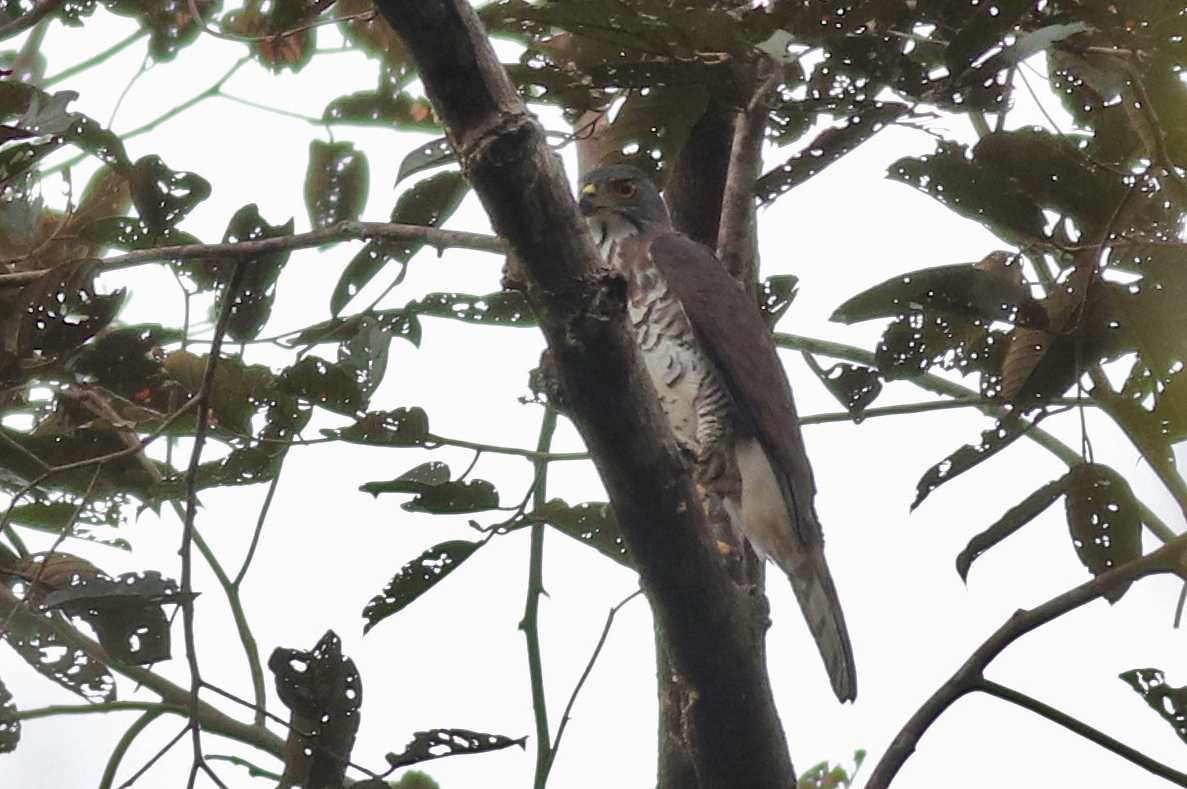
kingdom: Animalia
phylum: Chordata
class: Aves
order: Accipitriformes
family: Accipitridae
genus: Accipiter
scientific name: Accipiter trivirgatus
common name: Crested goshawk
